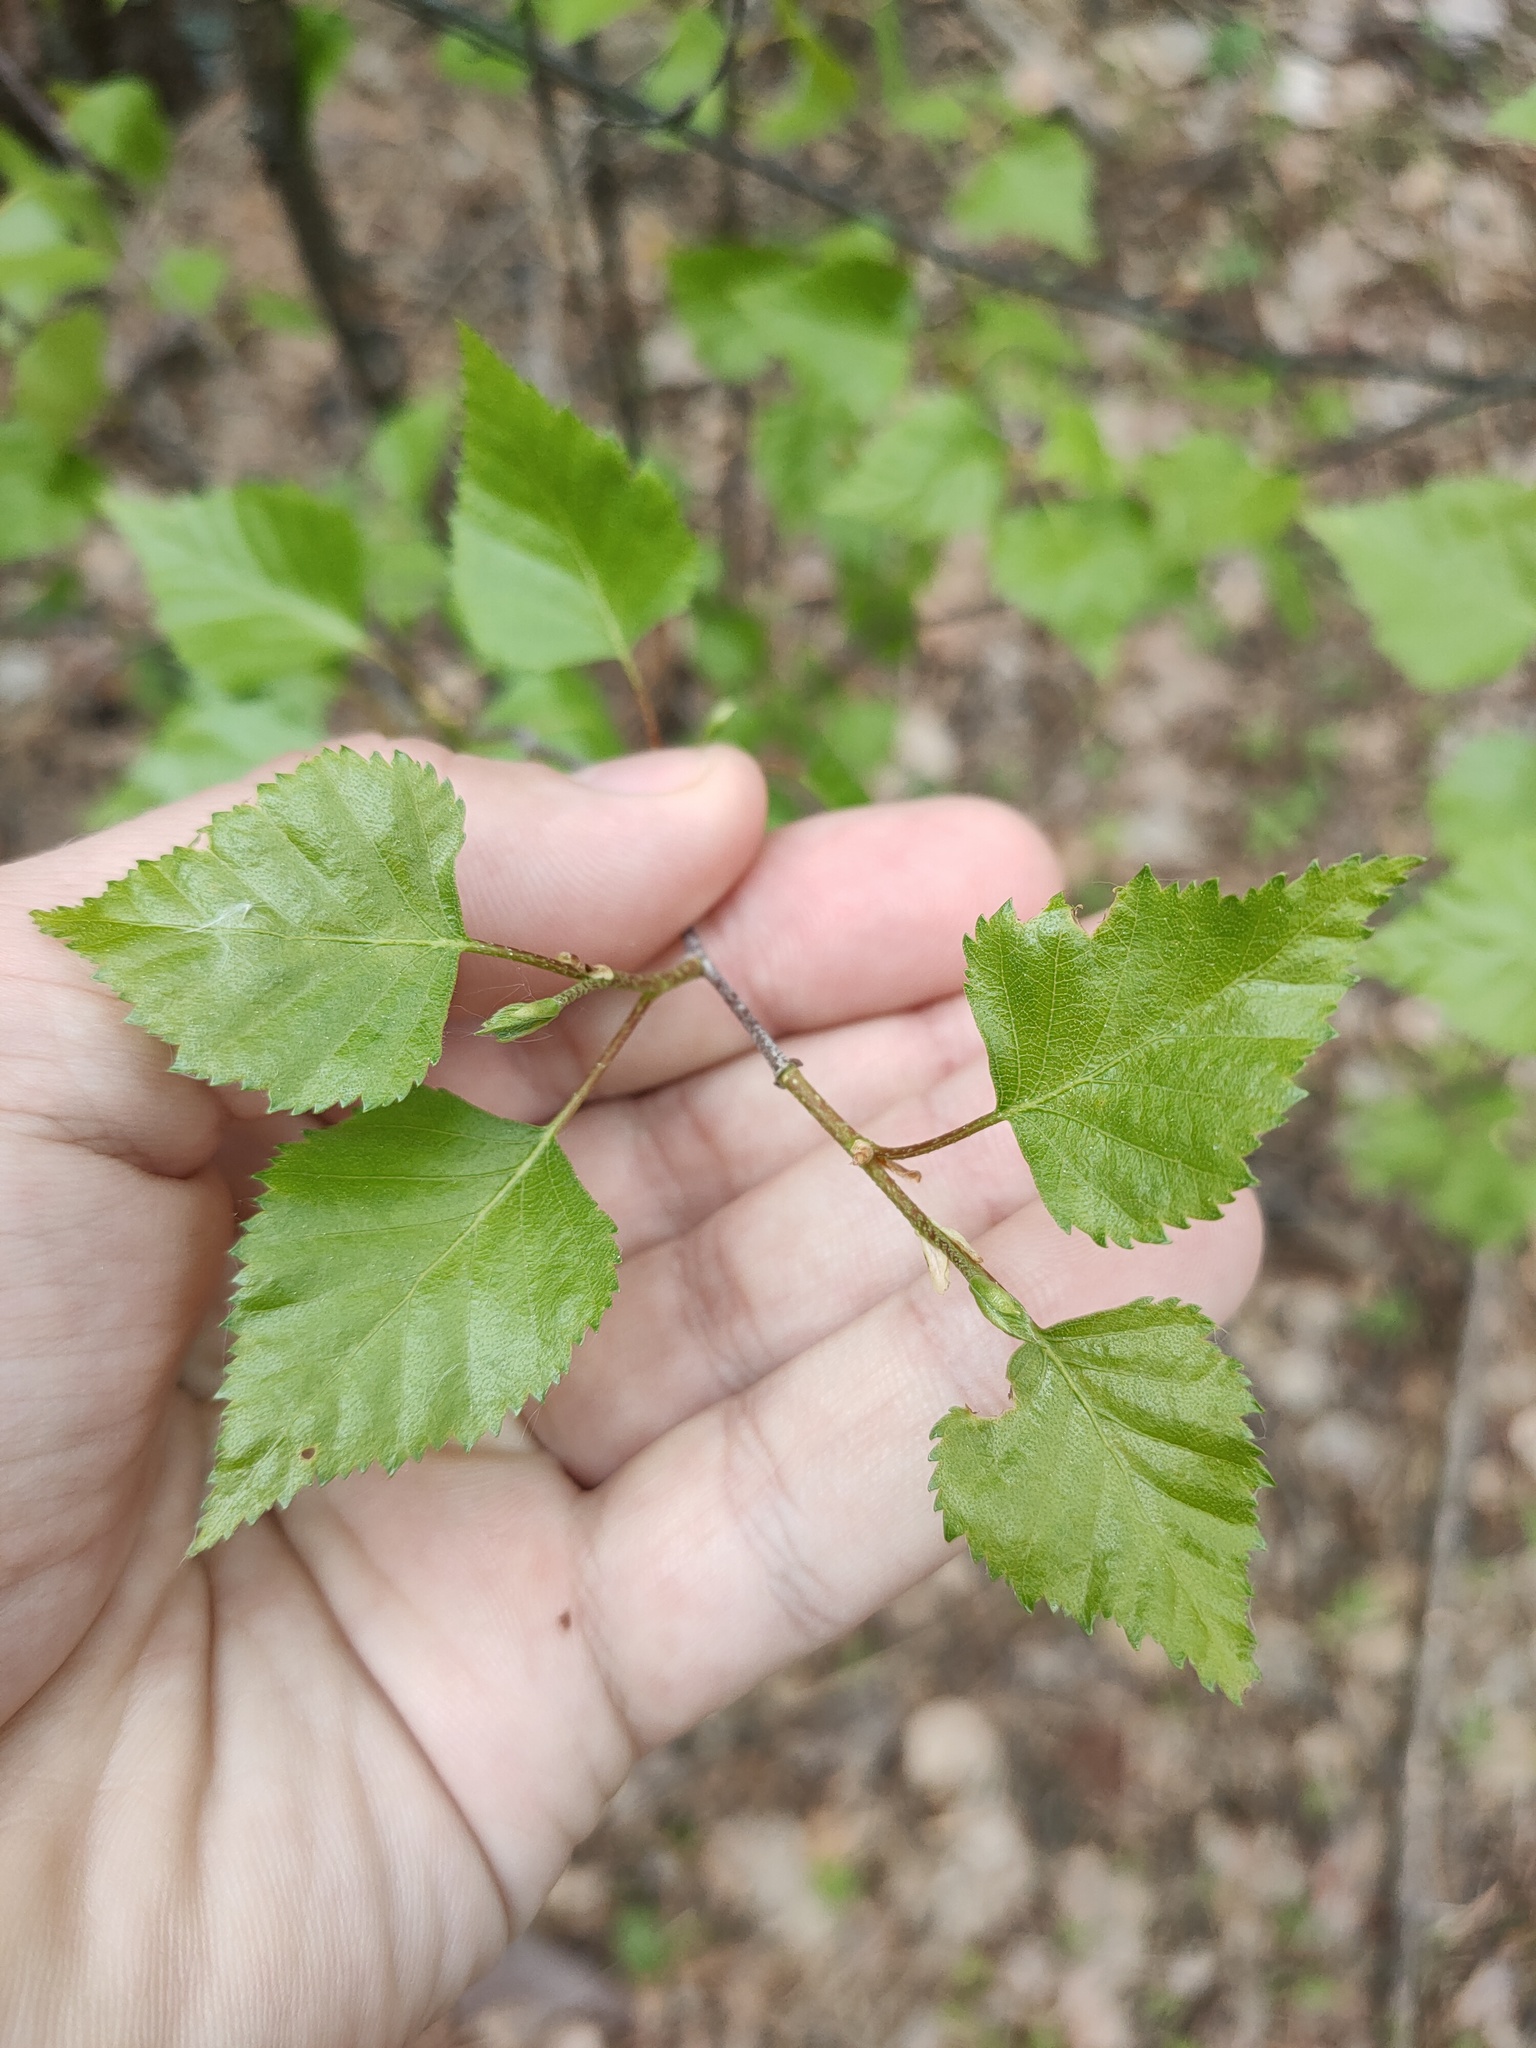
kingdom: Plantae
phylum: Tracheophyta
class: Magnoliopsida
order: Fagales
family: Betulaceae
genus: Betula
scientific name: Betula pendula
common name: Silver birch
